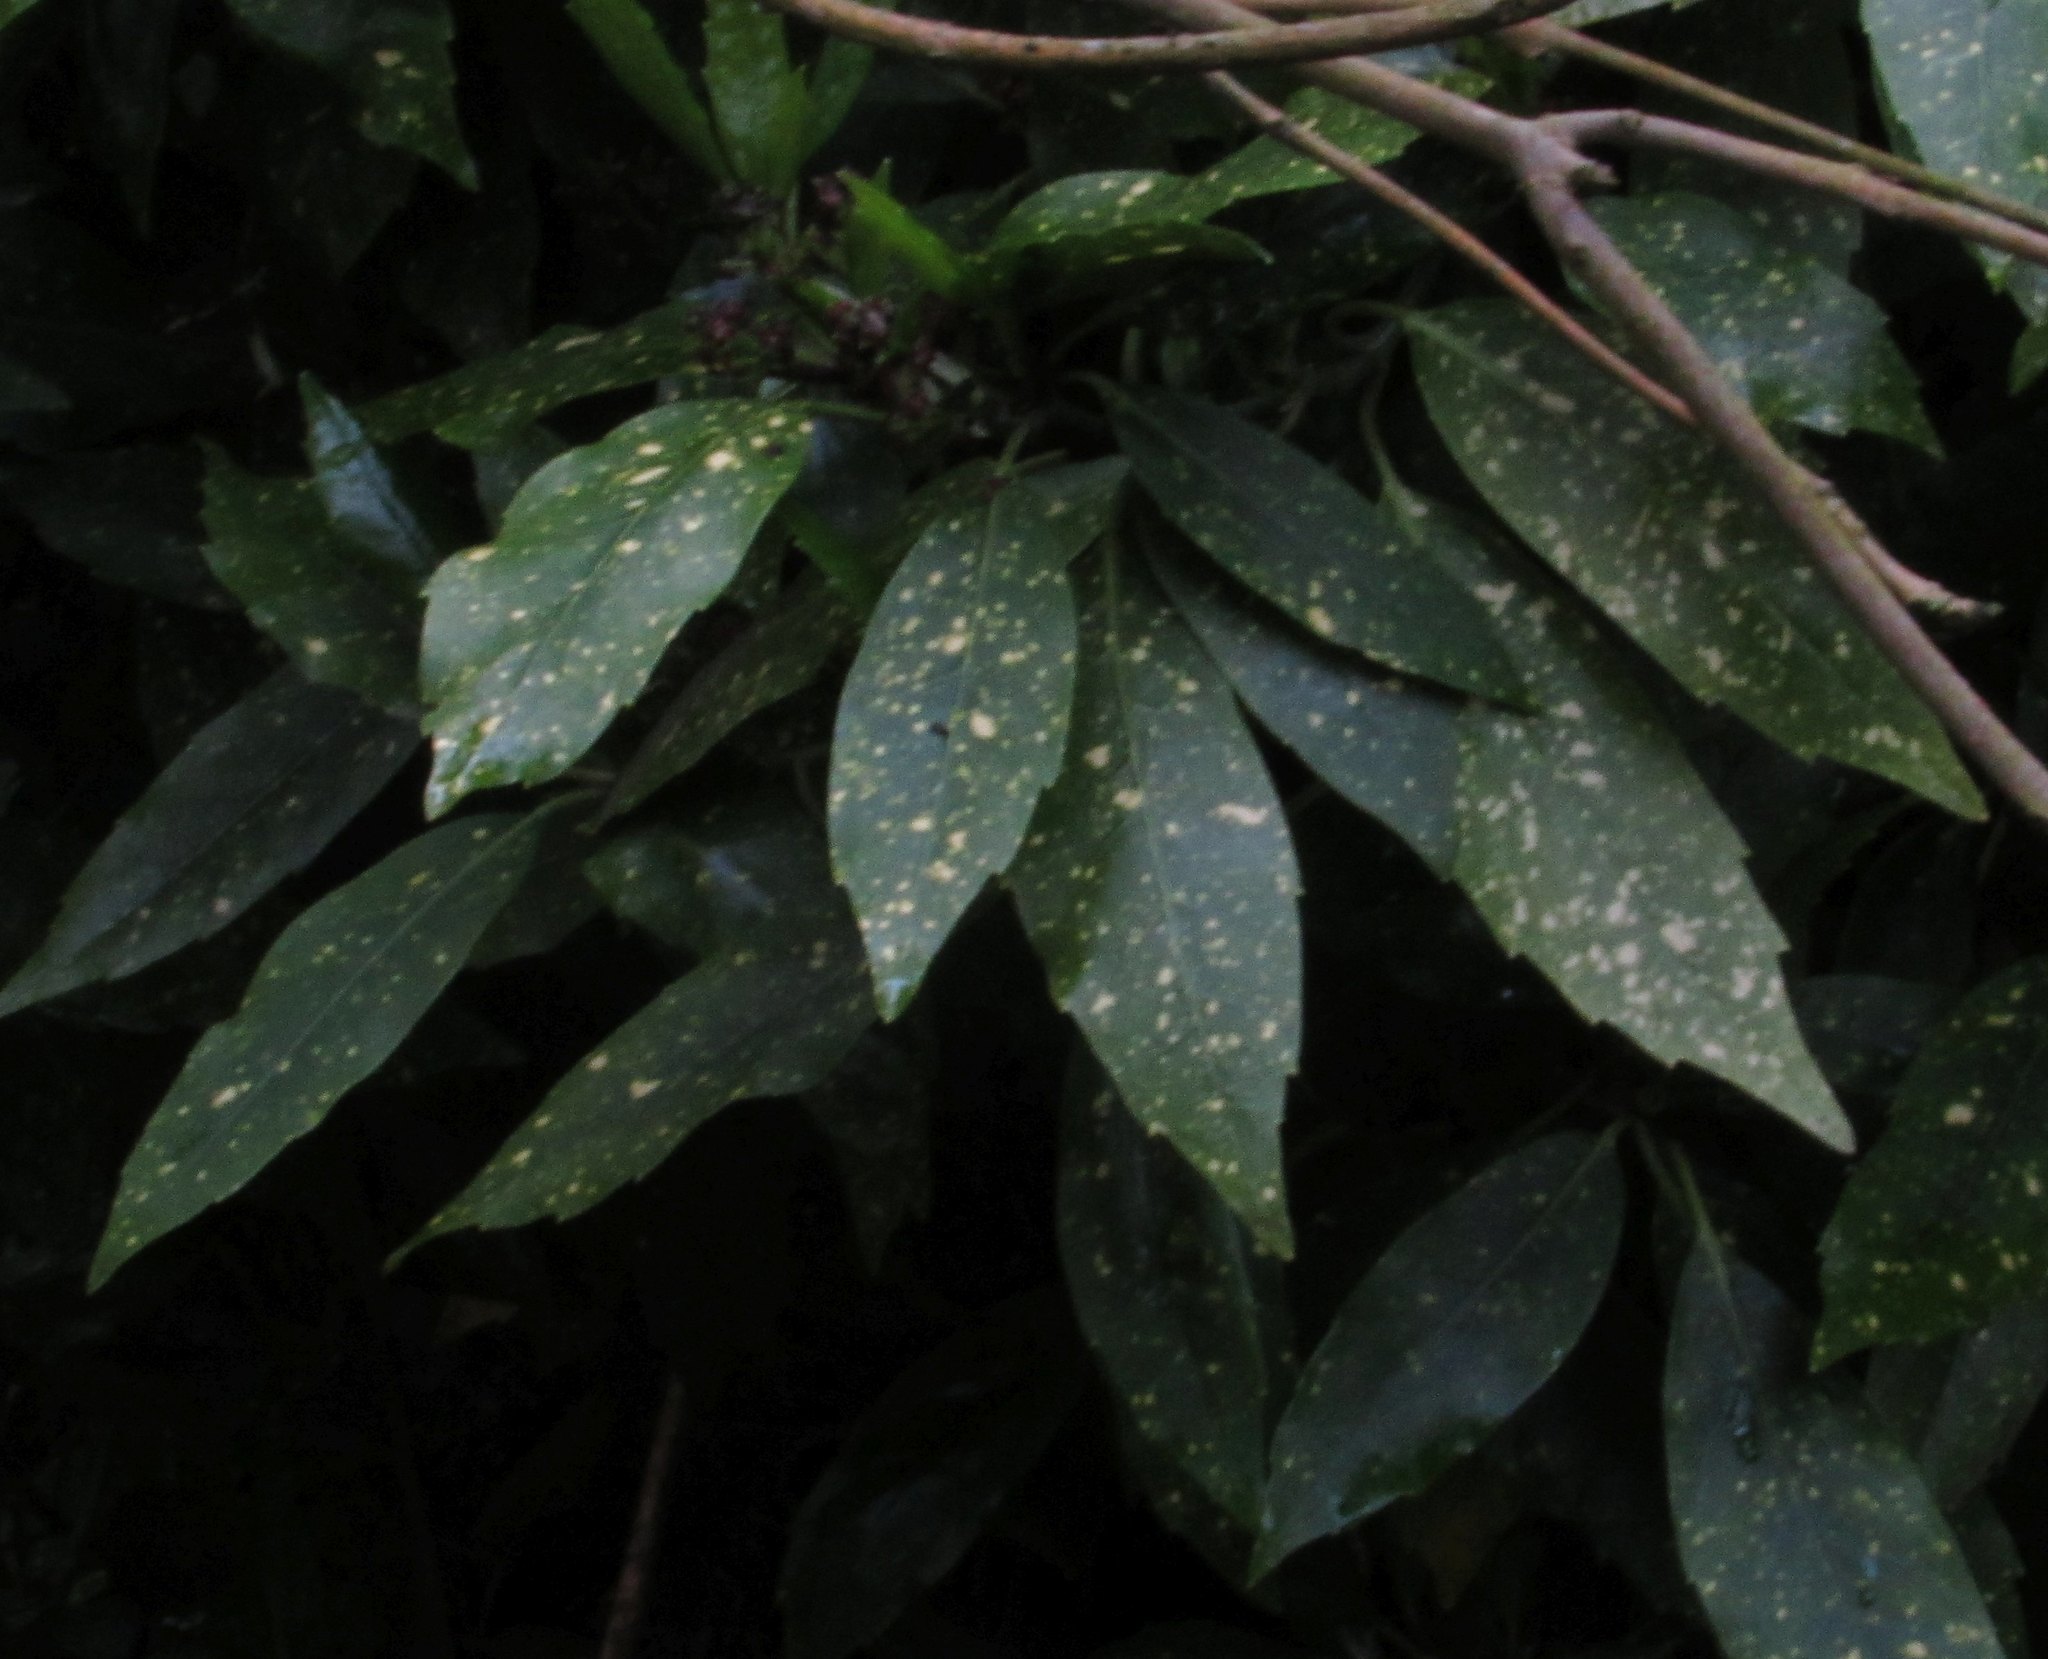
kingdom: Plantae
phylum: Tracheophyta
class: Magnoliopsida
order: Garryales
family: Garryaceae
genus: Aucuba
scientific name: Aucuba japonica
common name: Spotted-laurel
